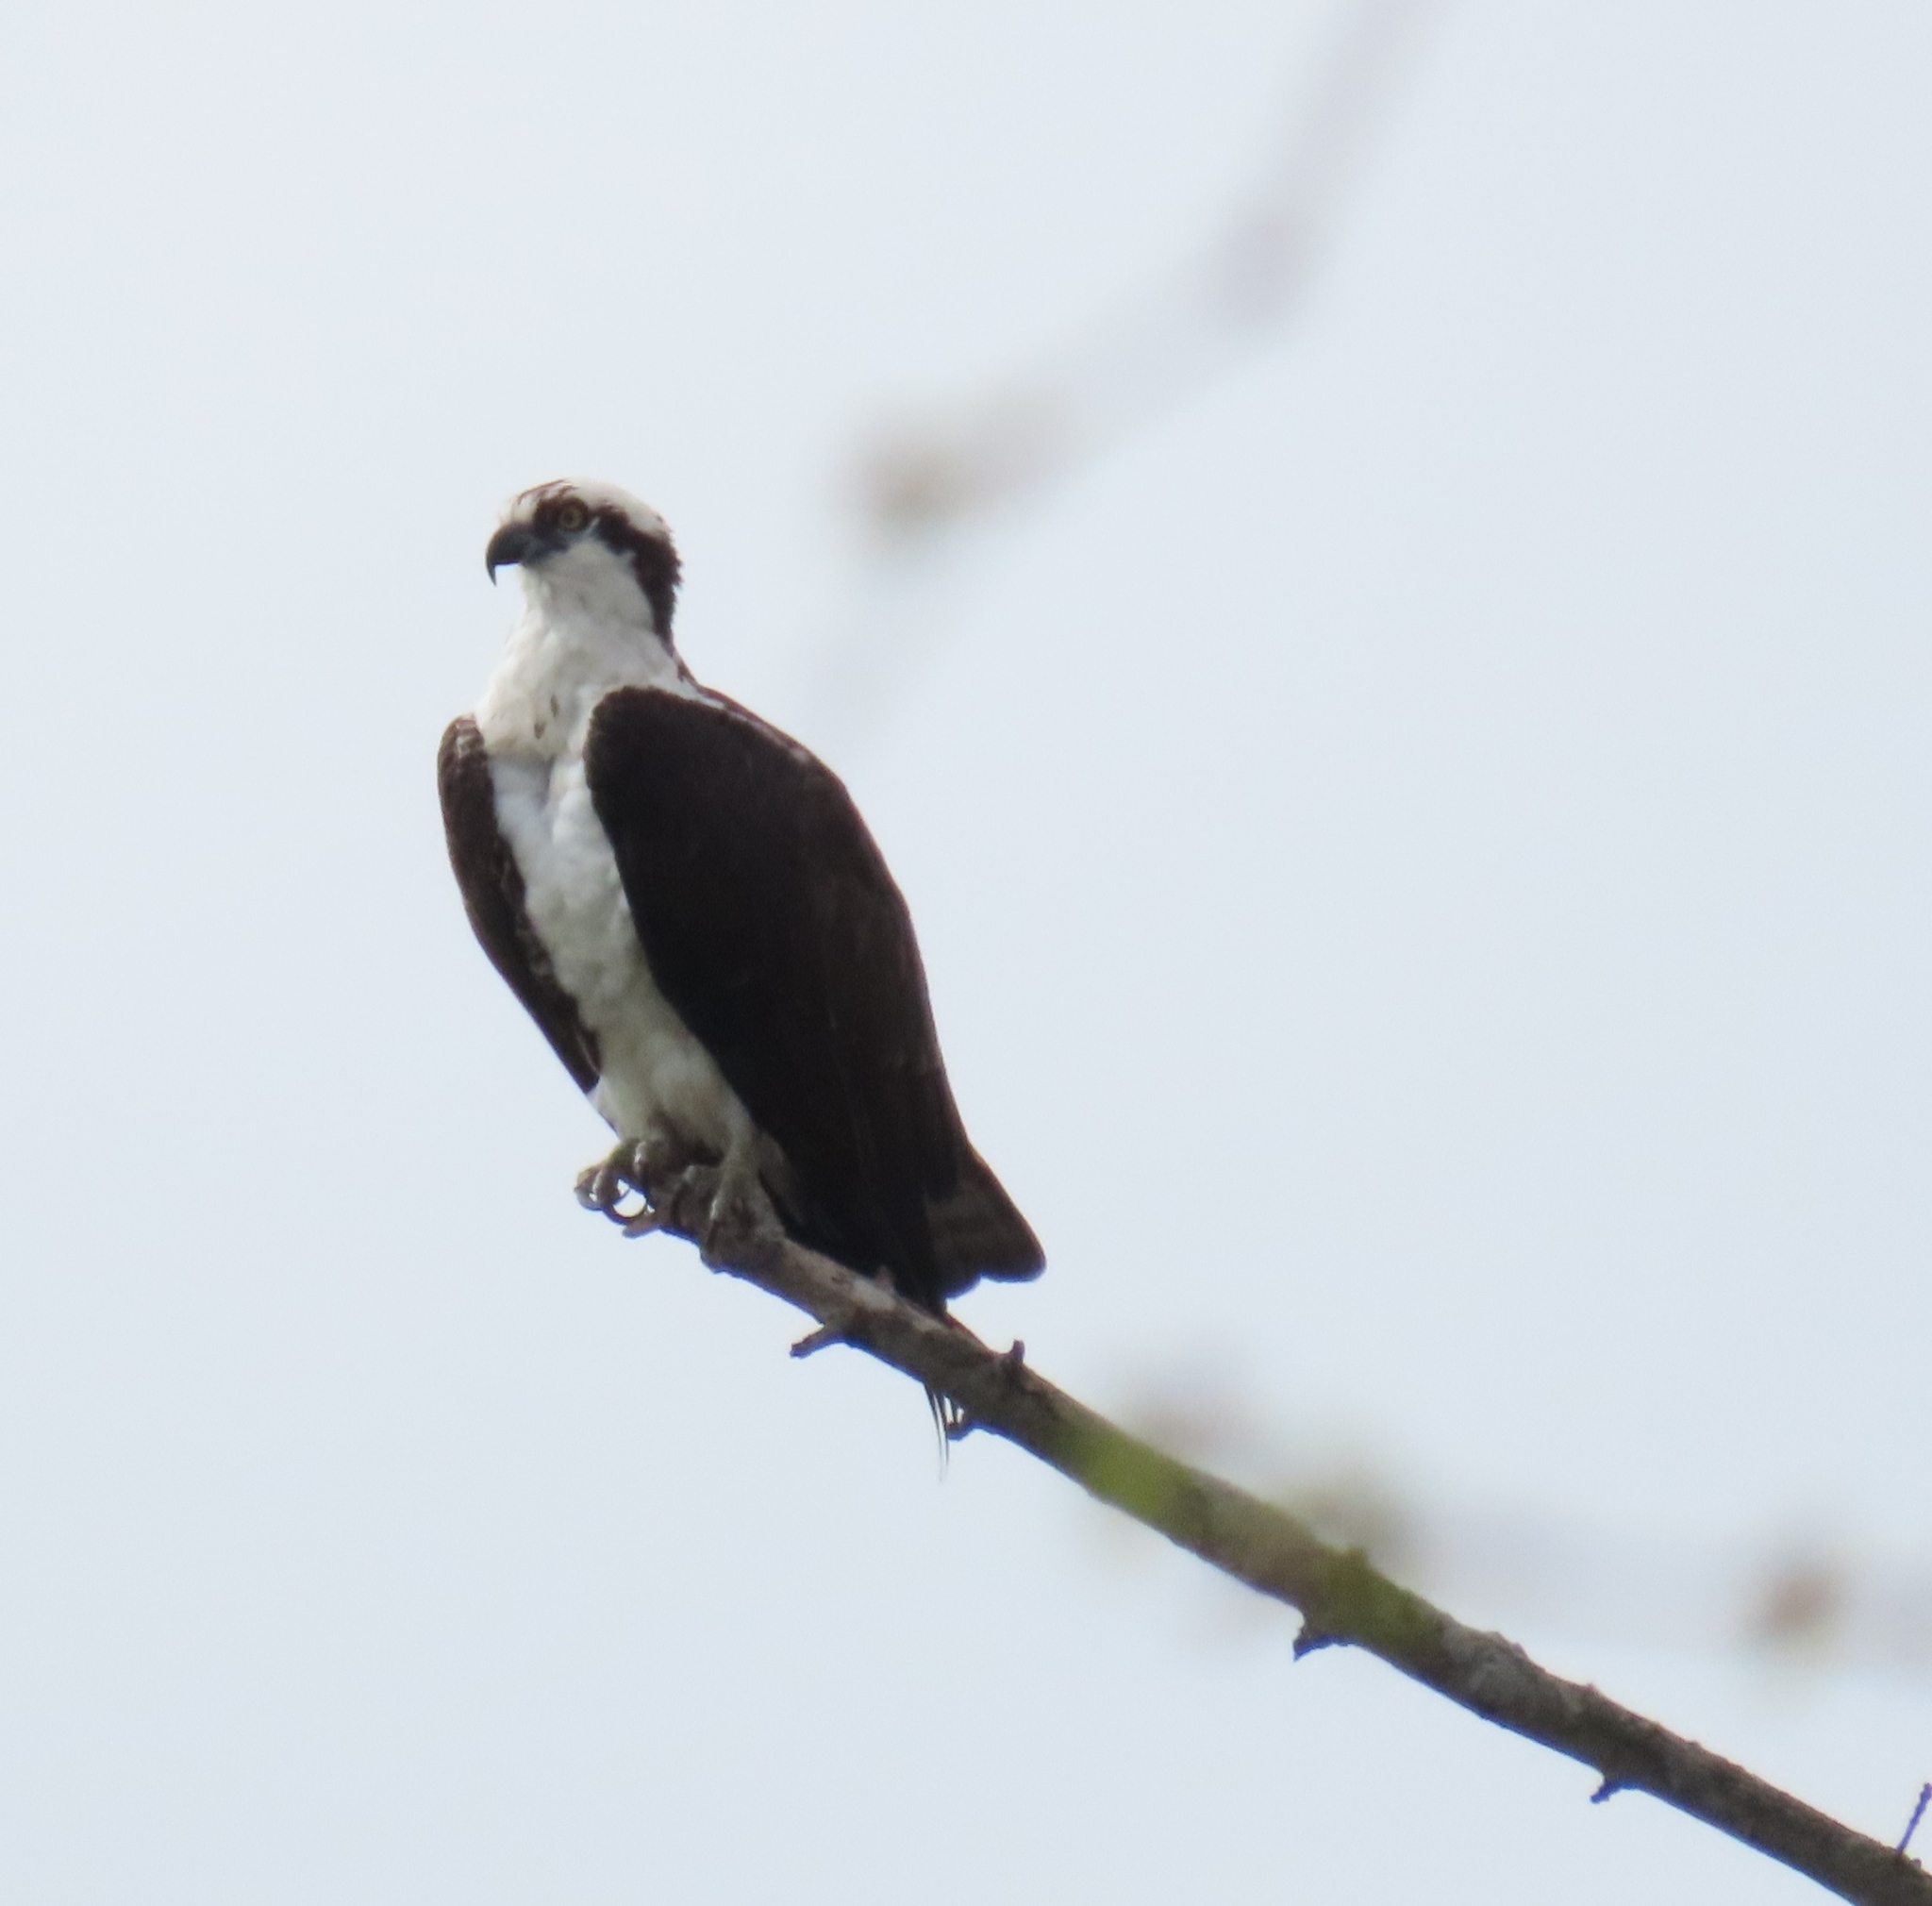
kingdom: Animalia
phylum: Chordata
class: Aves
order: Accipitriformes
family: Pandionidae
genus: Pandion
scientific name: Pandion haliaetus
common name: Osprey
